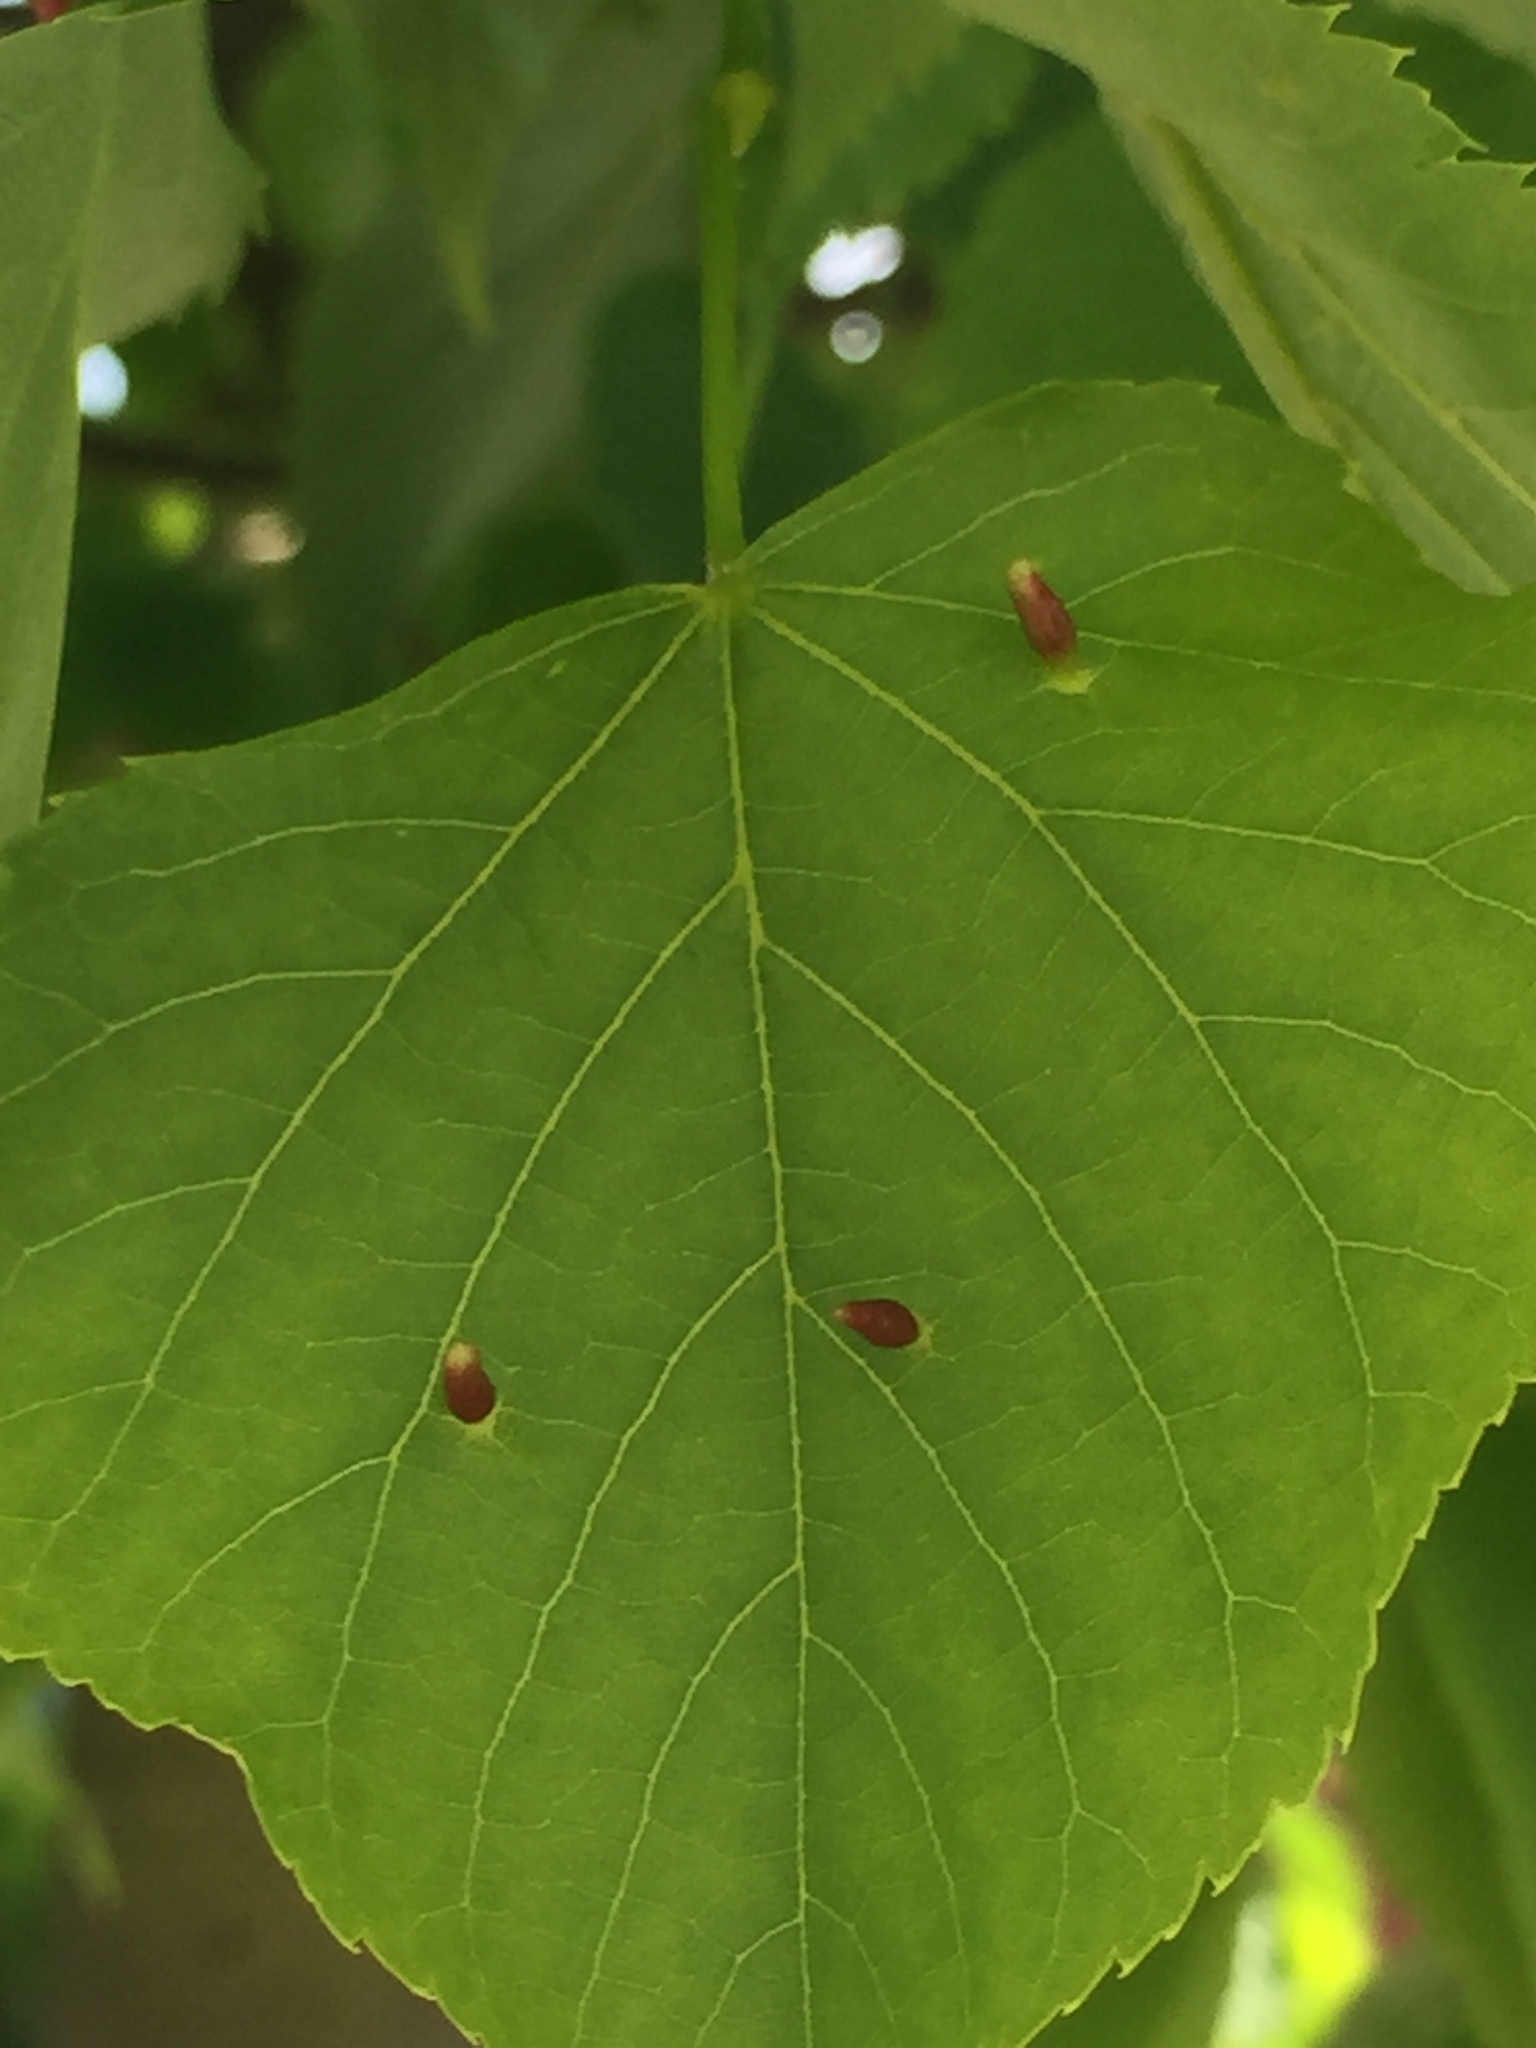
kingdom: Animalia
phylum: Arthropoda
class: Arachnida
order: Trombidiformes
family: Eriophyidae
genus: Eriophyes
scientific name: Eriophyes tiliae
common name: Red nail gall mite
